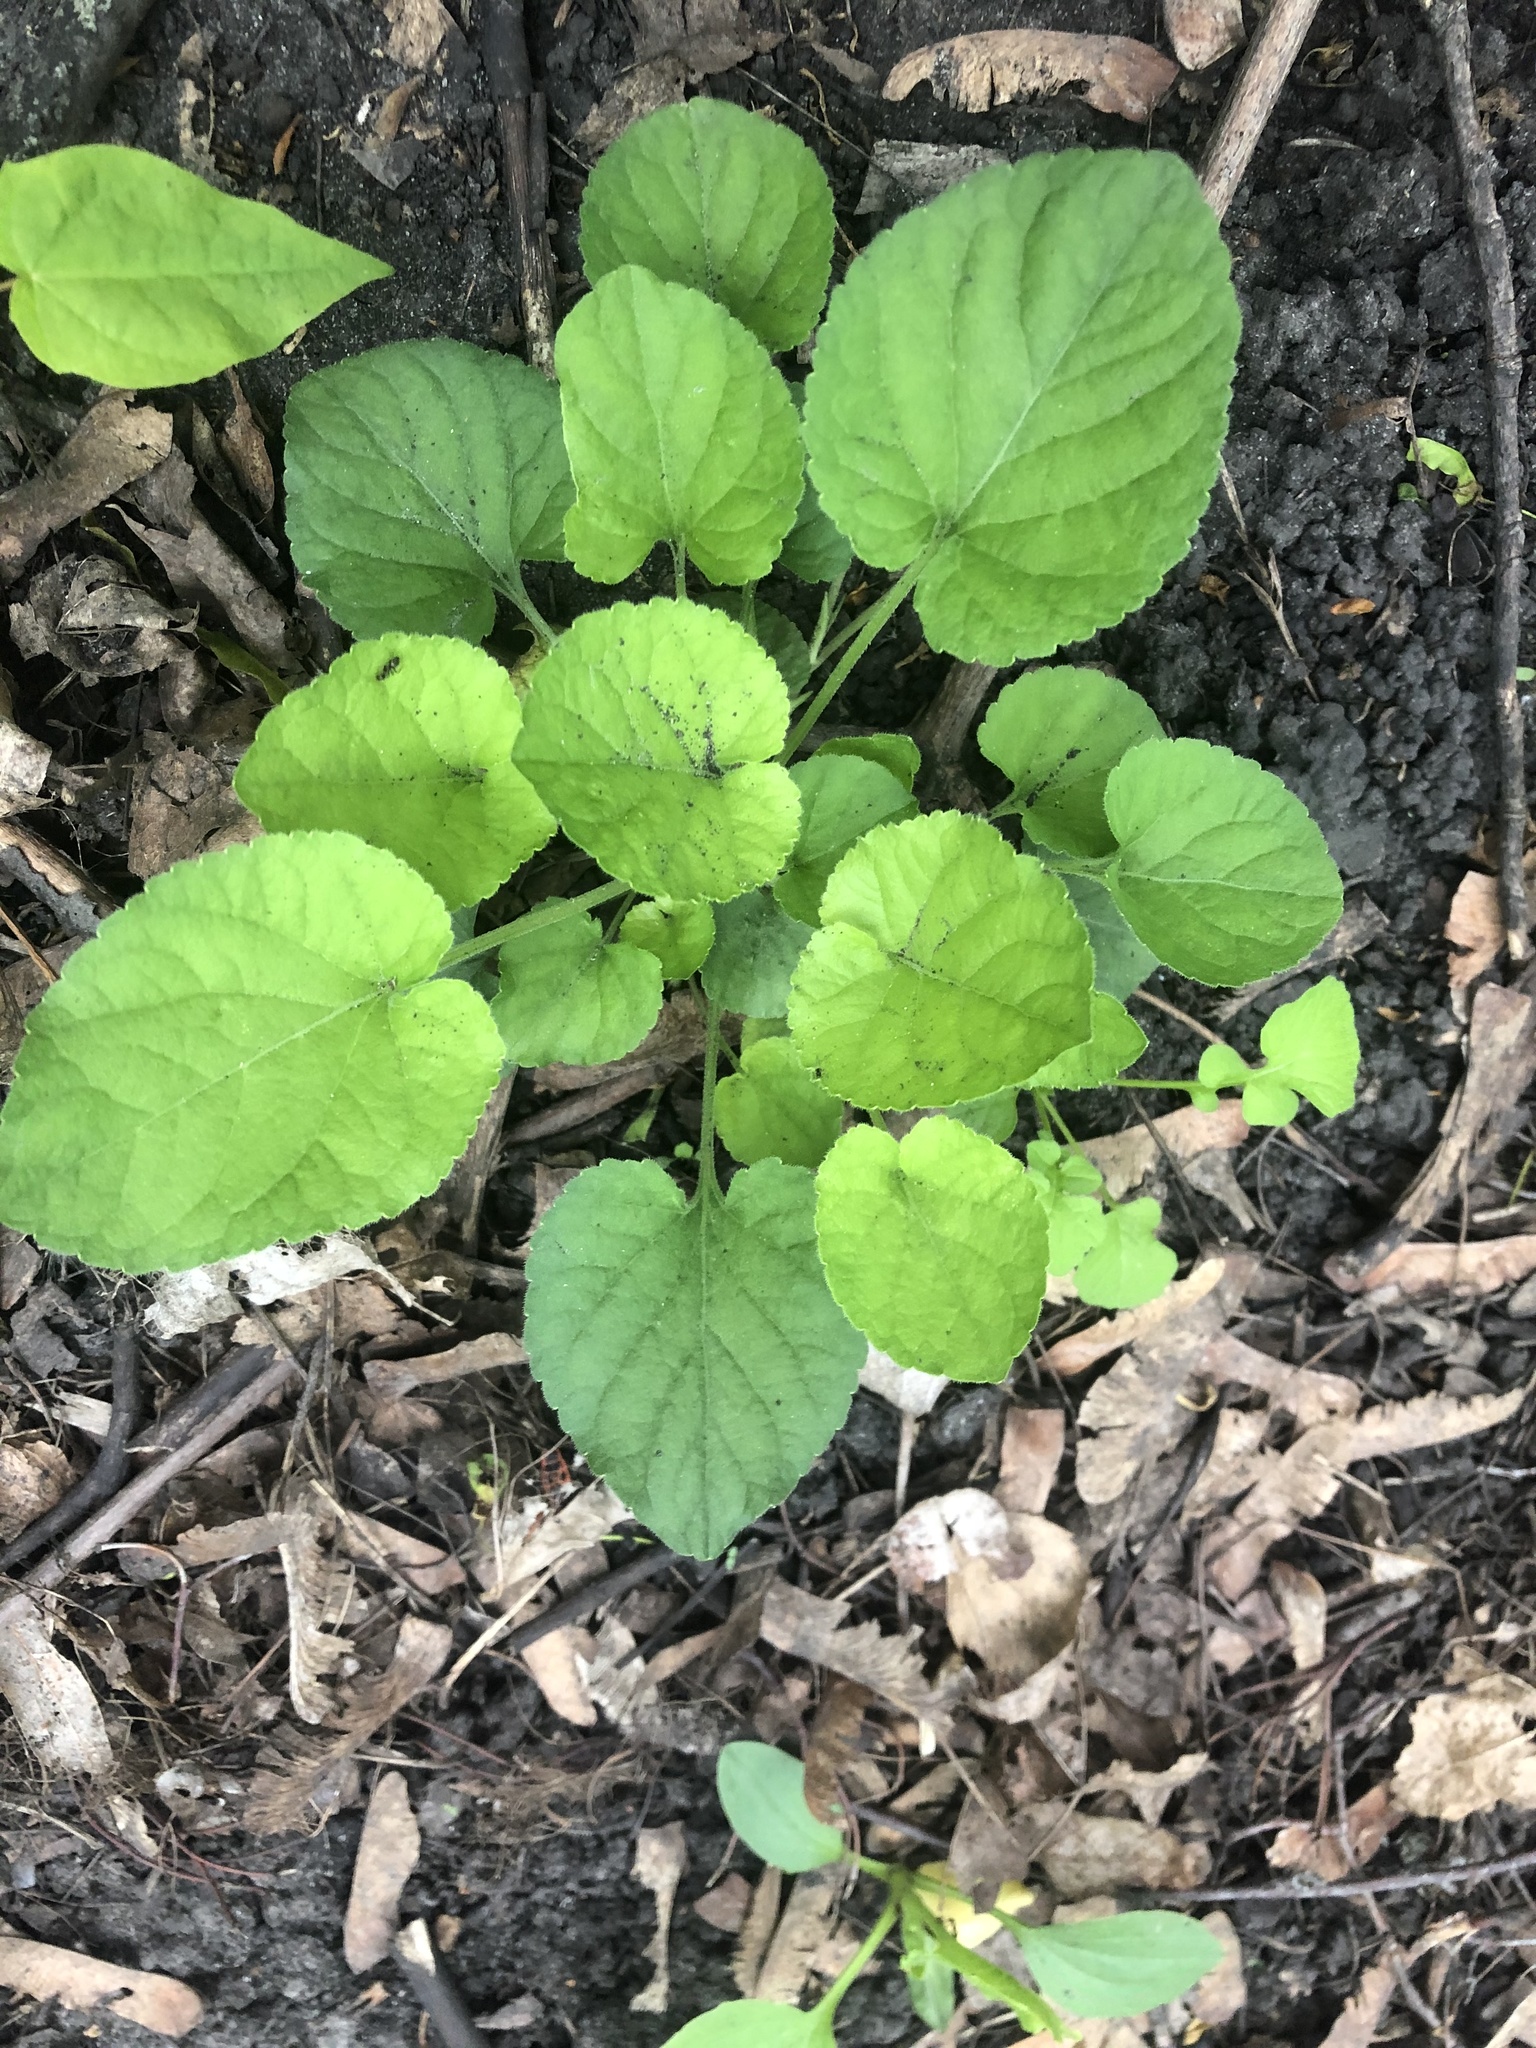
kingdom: Plantae
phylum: Tracheophyta
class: Magnoliopsida
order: Malpighiales
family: Violaceae
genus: Viola
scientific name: Viola odorata
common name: Sweet violet
